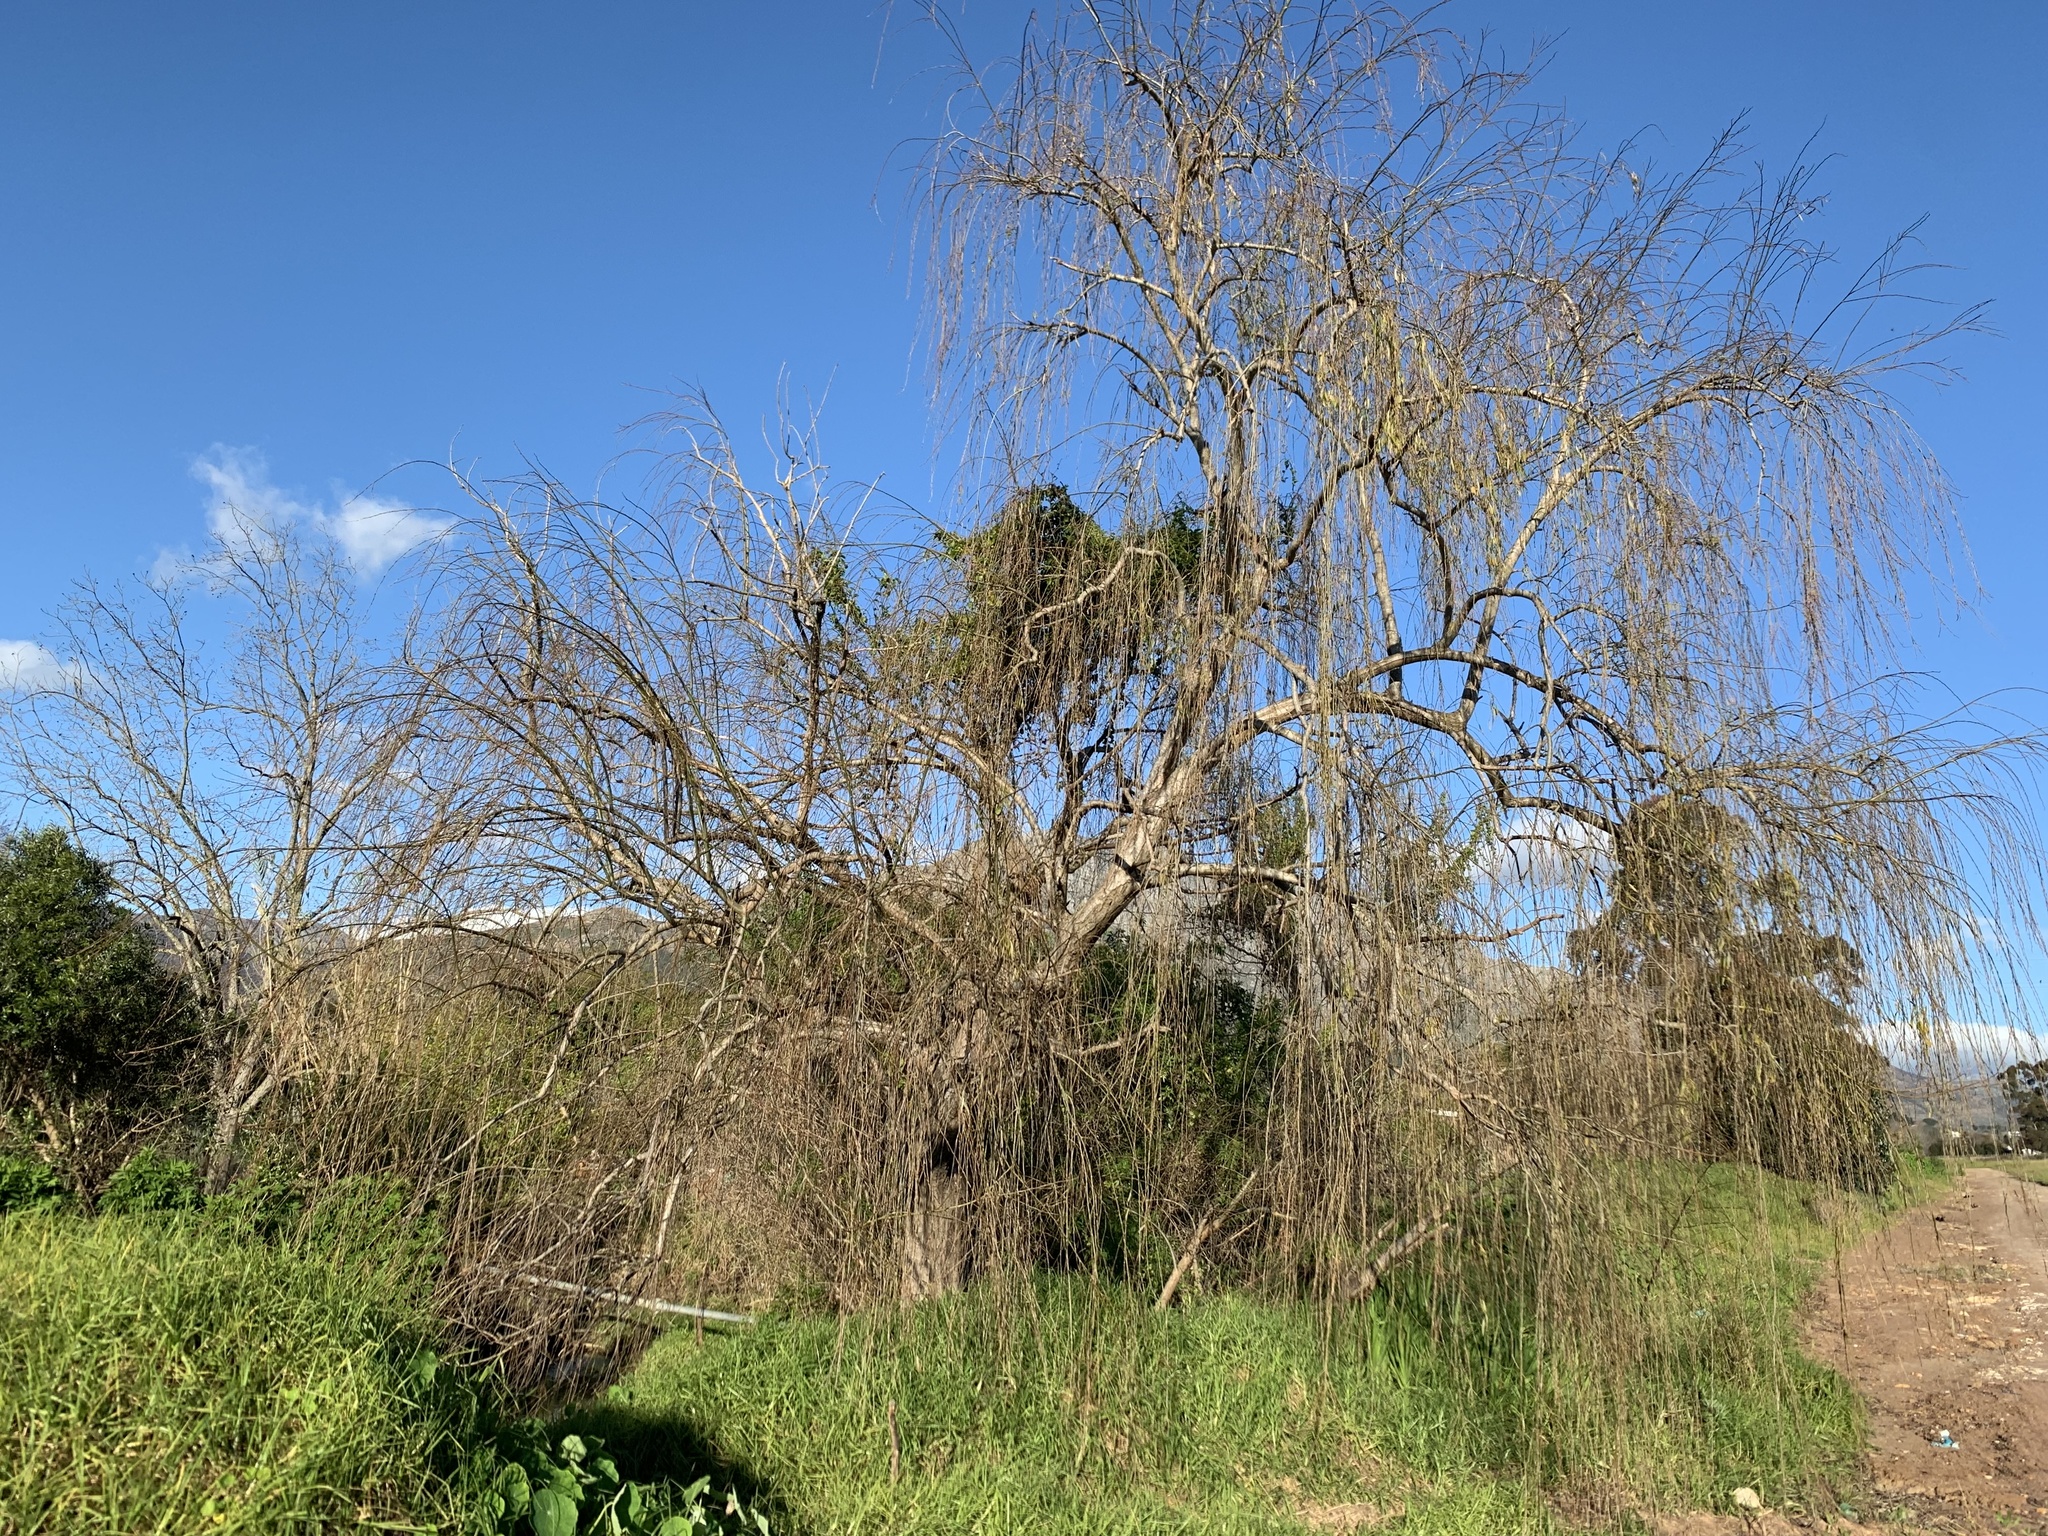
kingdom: Plantae
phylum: Tracheophyta
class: Magnoliopsida
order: Malpighiales
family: Salicaceae
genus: Salix
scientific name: Salix babylonica
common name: Weeping willow
